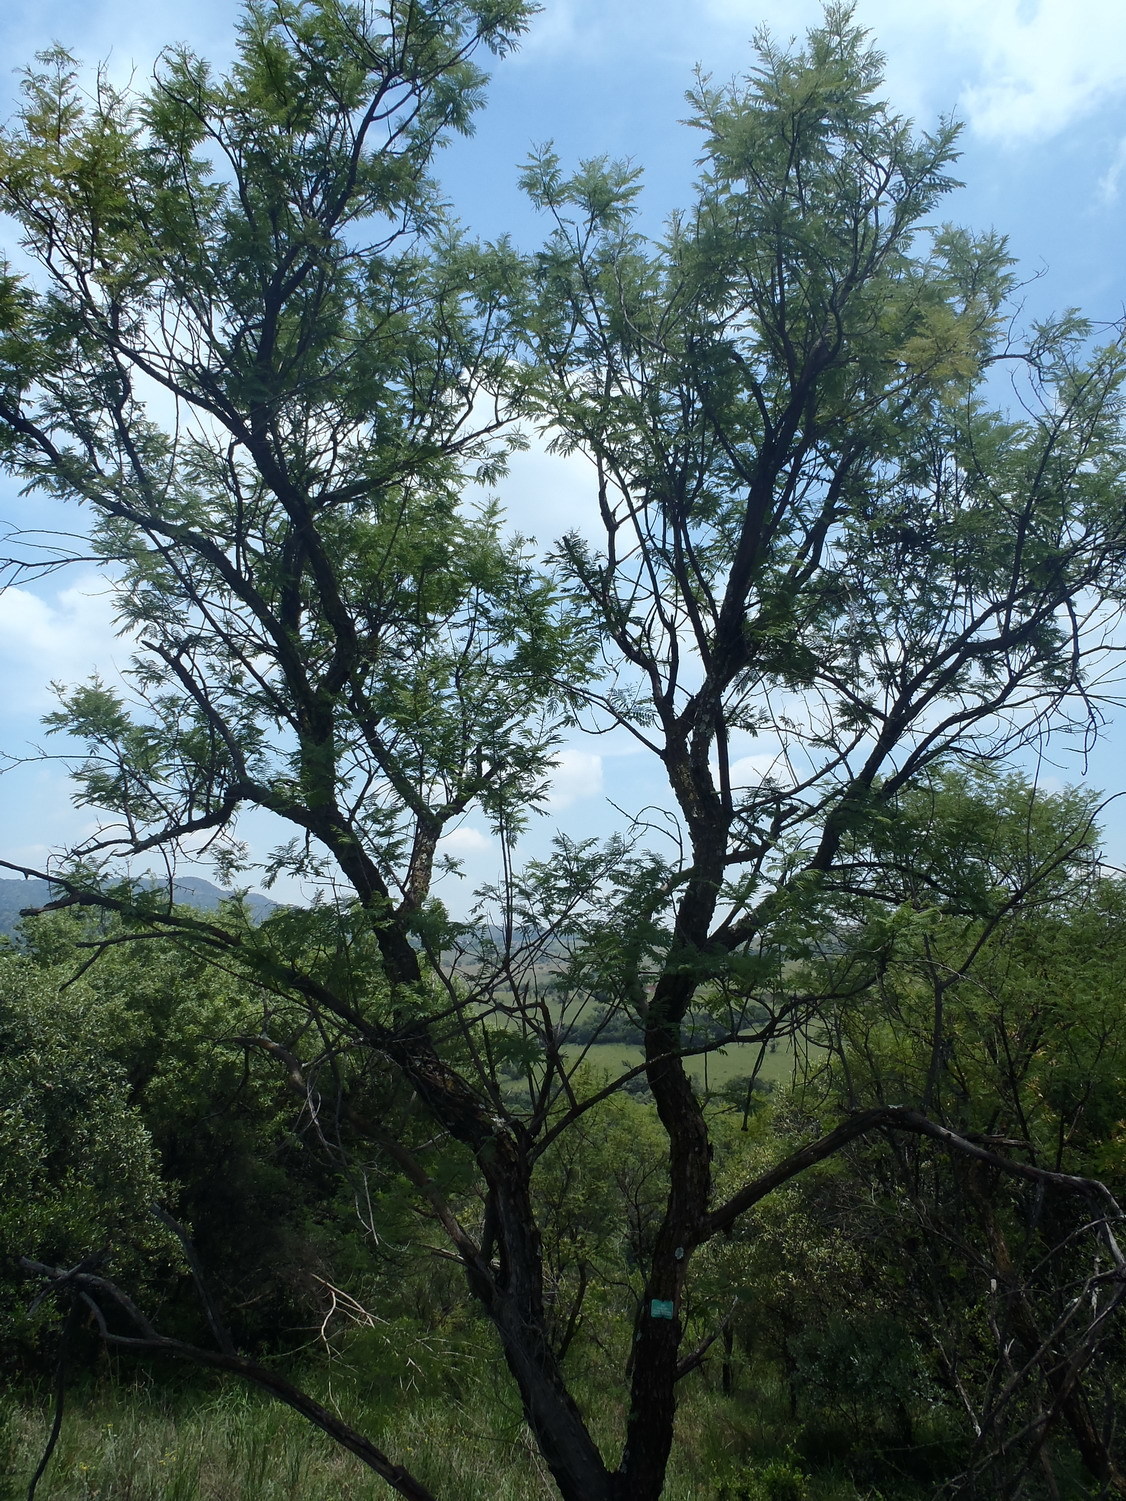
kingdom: Plantae
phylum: Tracheophyta
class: Magnoliopsida
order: Fabales
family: Fabaceae
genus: Senegalia
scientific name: Senegalia caffra
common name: Cat thorn
